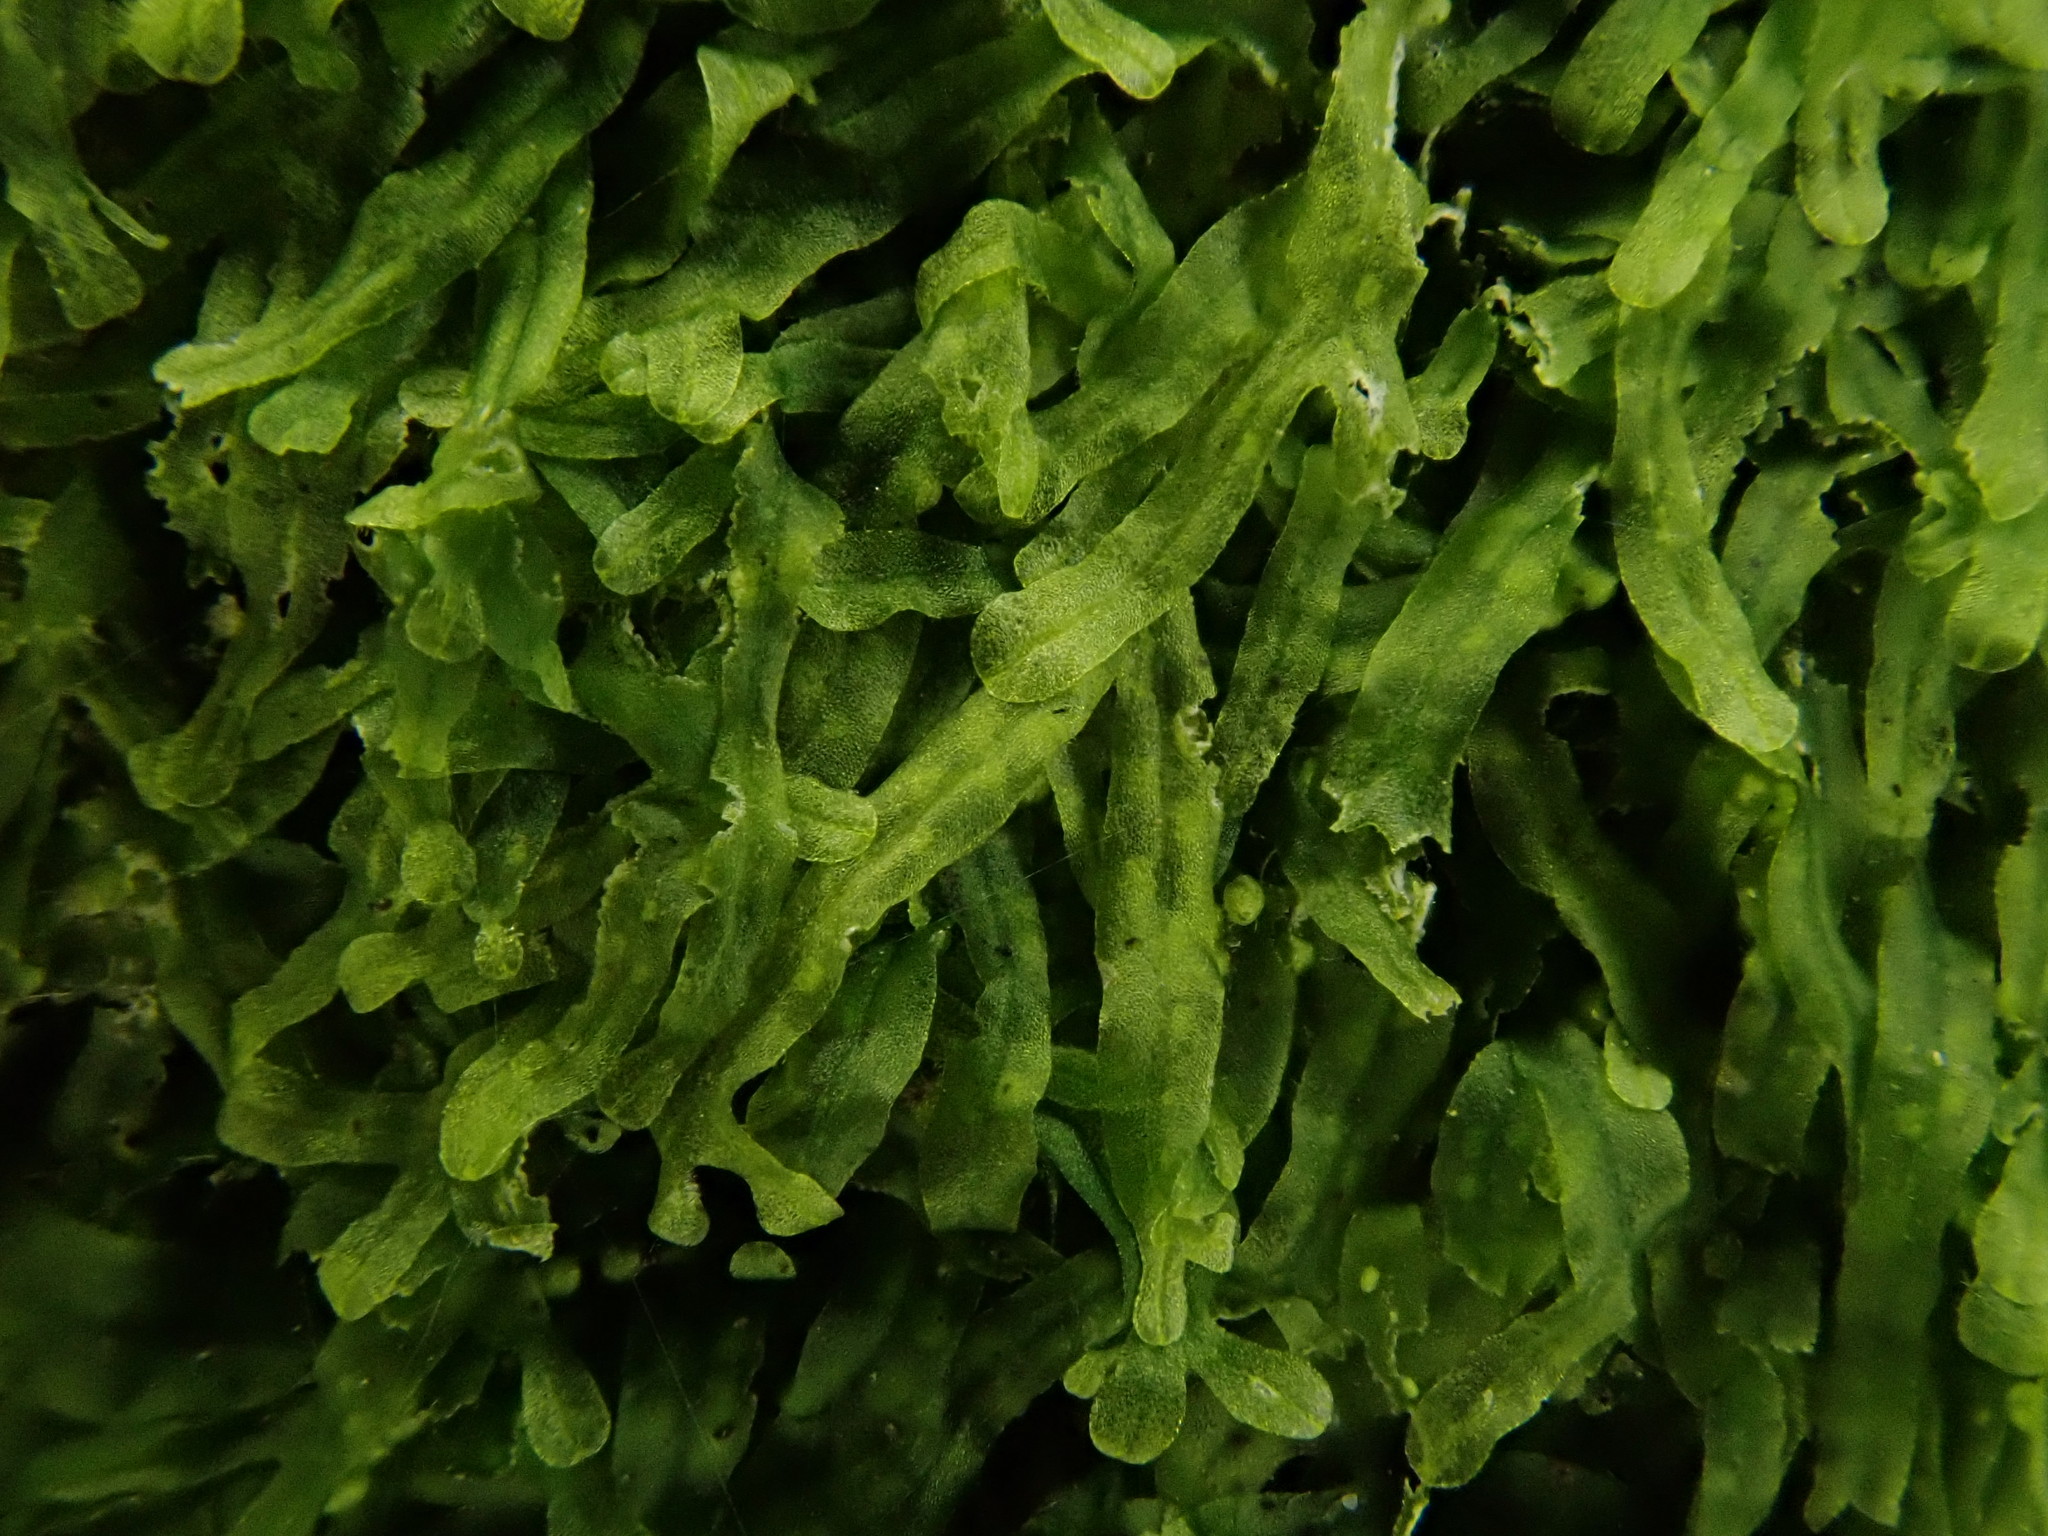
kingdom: Plantae
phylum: Marchantiophyta
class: Jungermanniopsida
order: Metzgeriales
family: Metzgeriaceae
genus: Metzgeria
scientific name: Metzgeria furcata
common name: Forked veilwort
